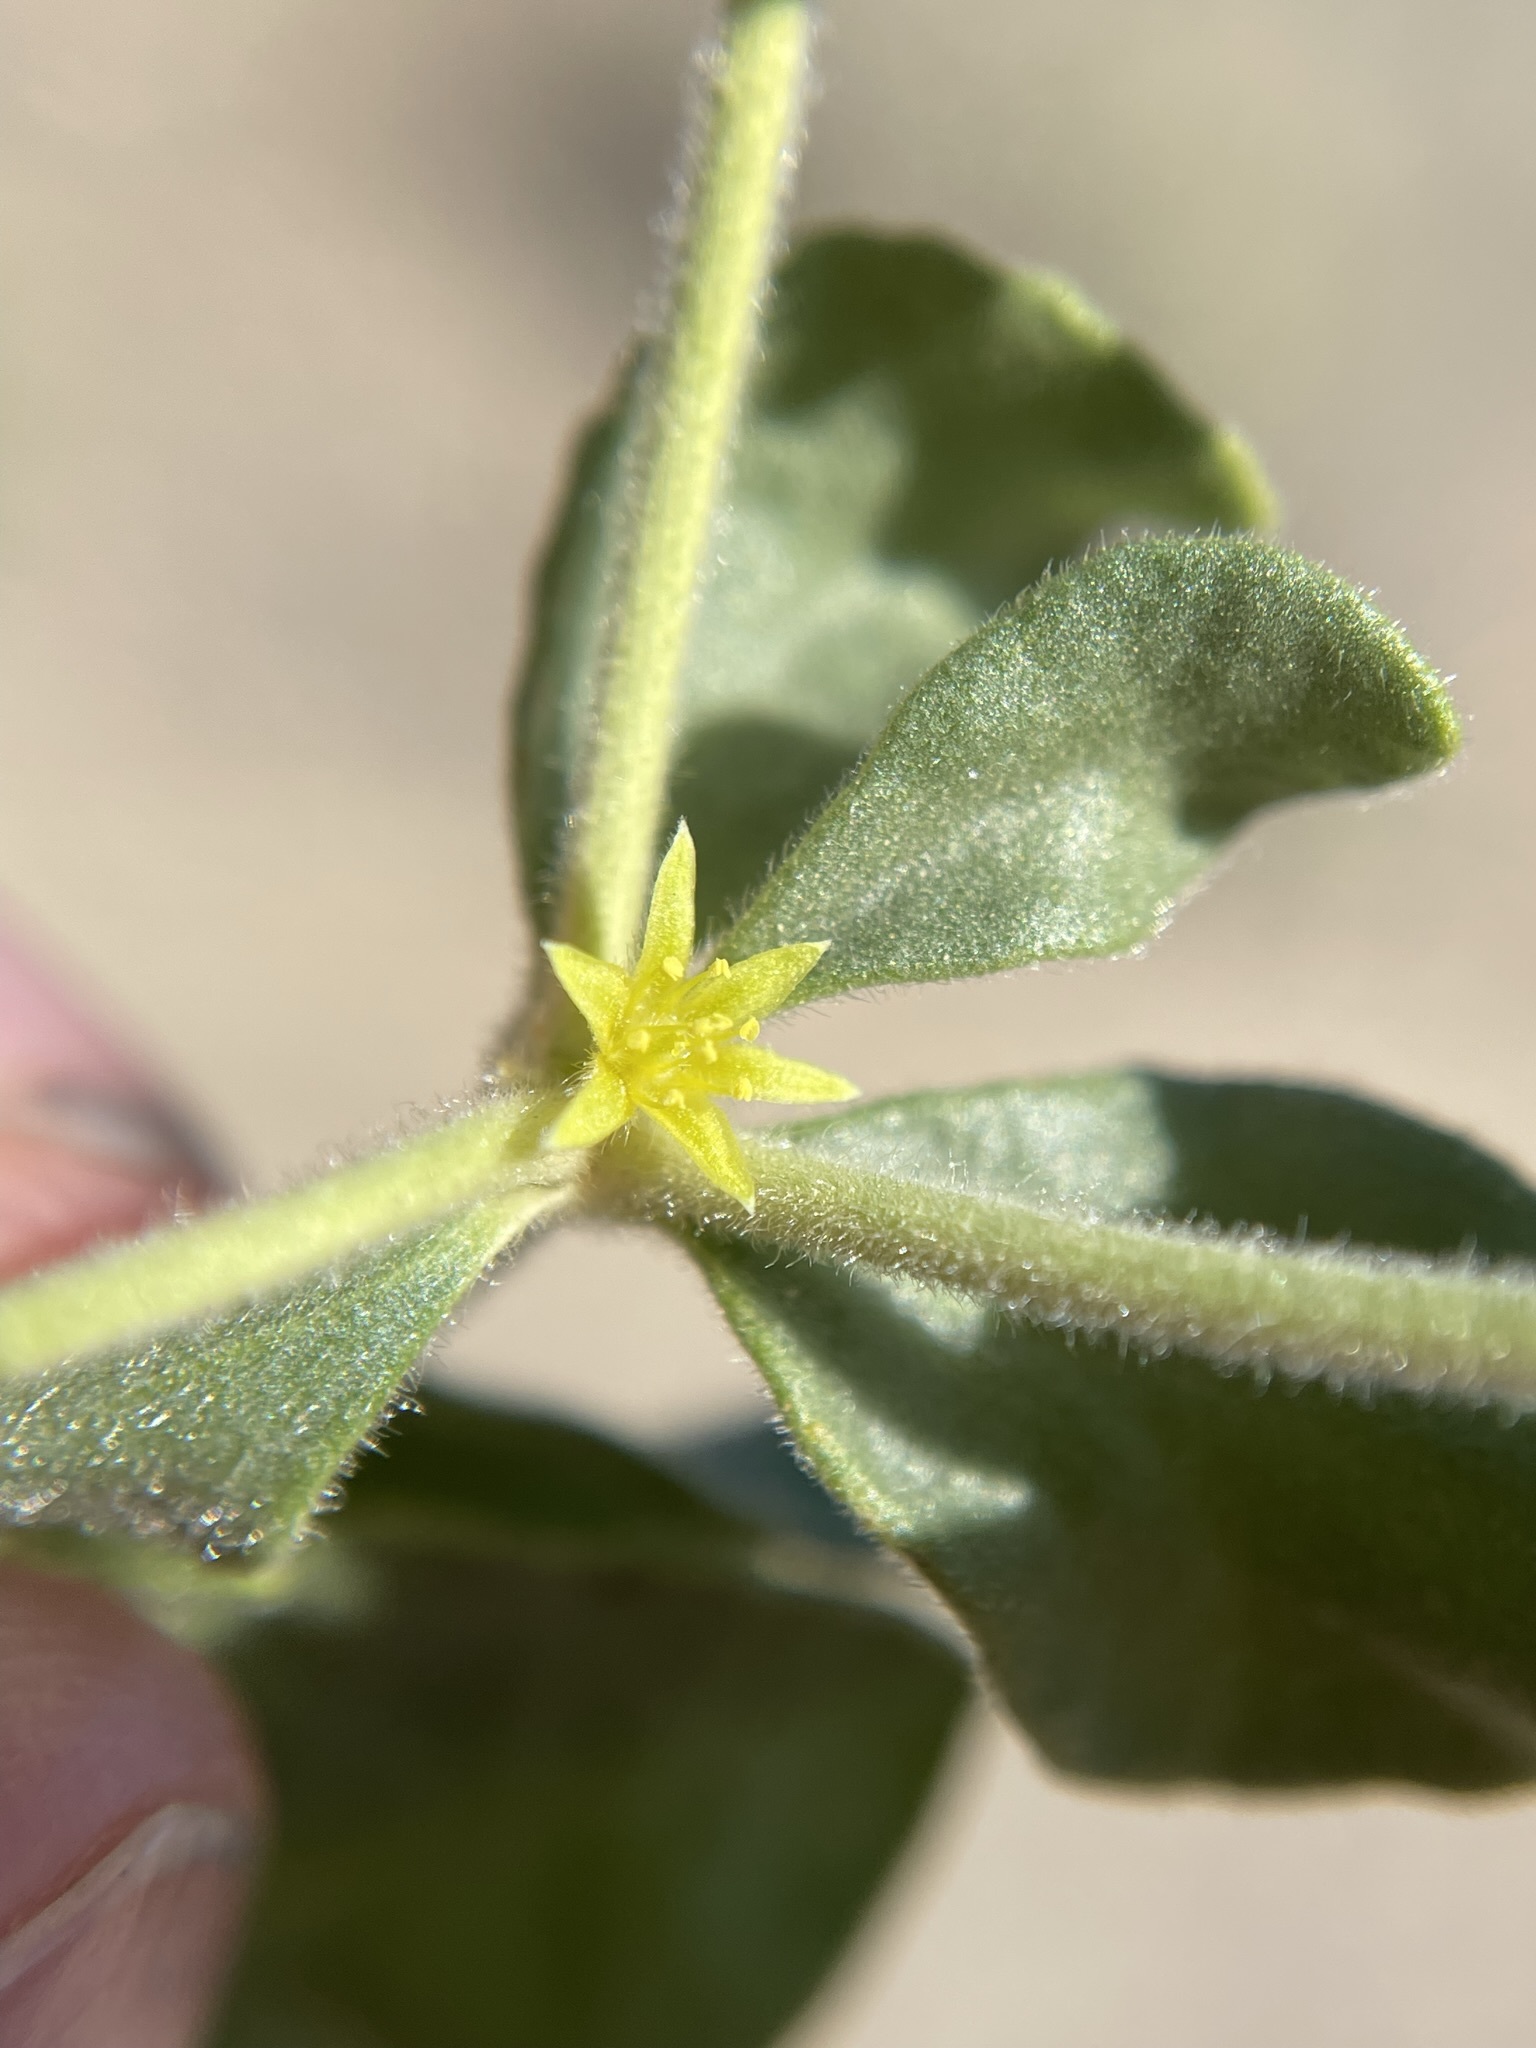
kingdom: Plantae
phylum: Tracheophyta
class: Magnoliopsida
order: Caryophyllales
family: Polygonaceae
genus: Dedeckera
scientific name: Dedeckera eurekensis
